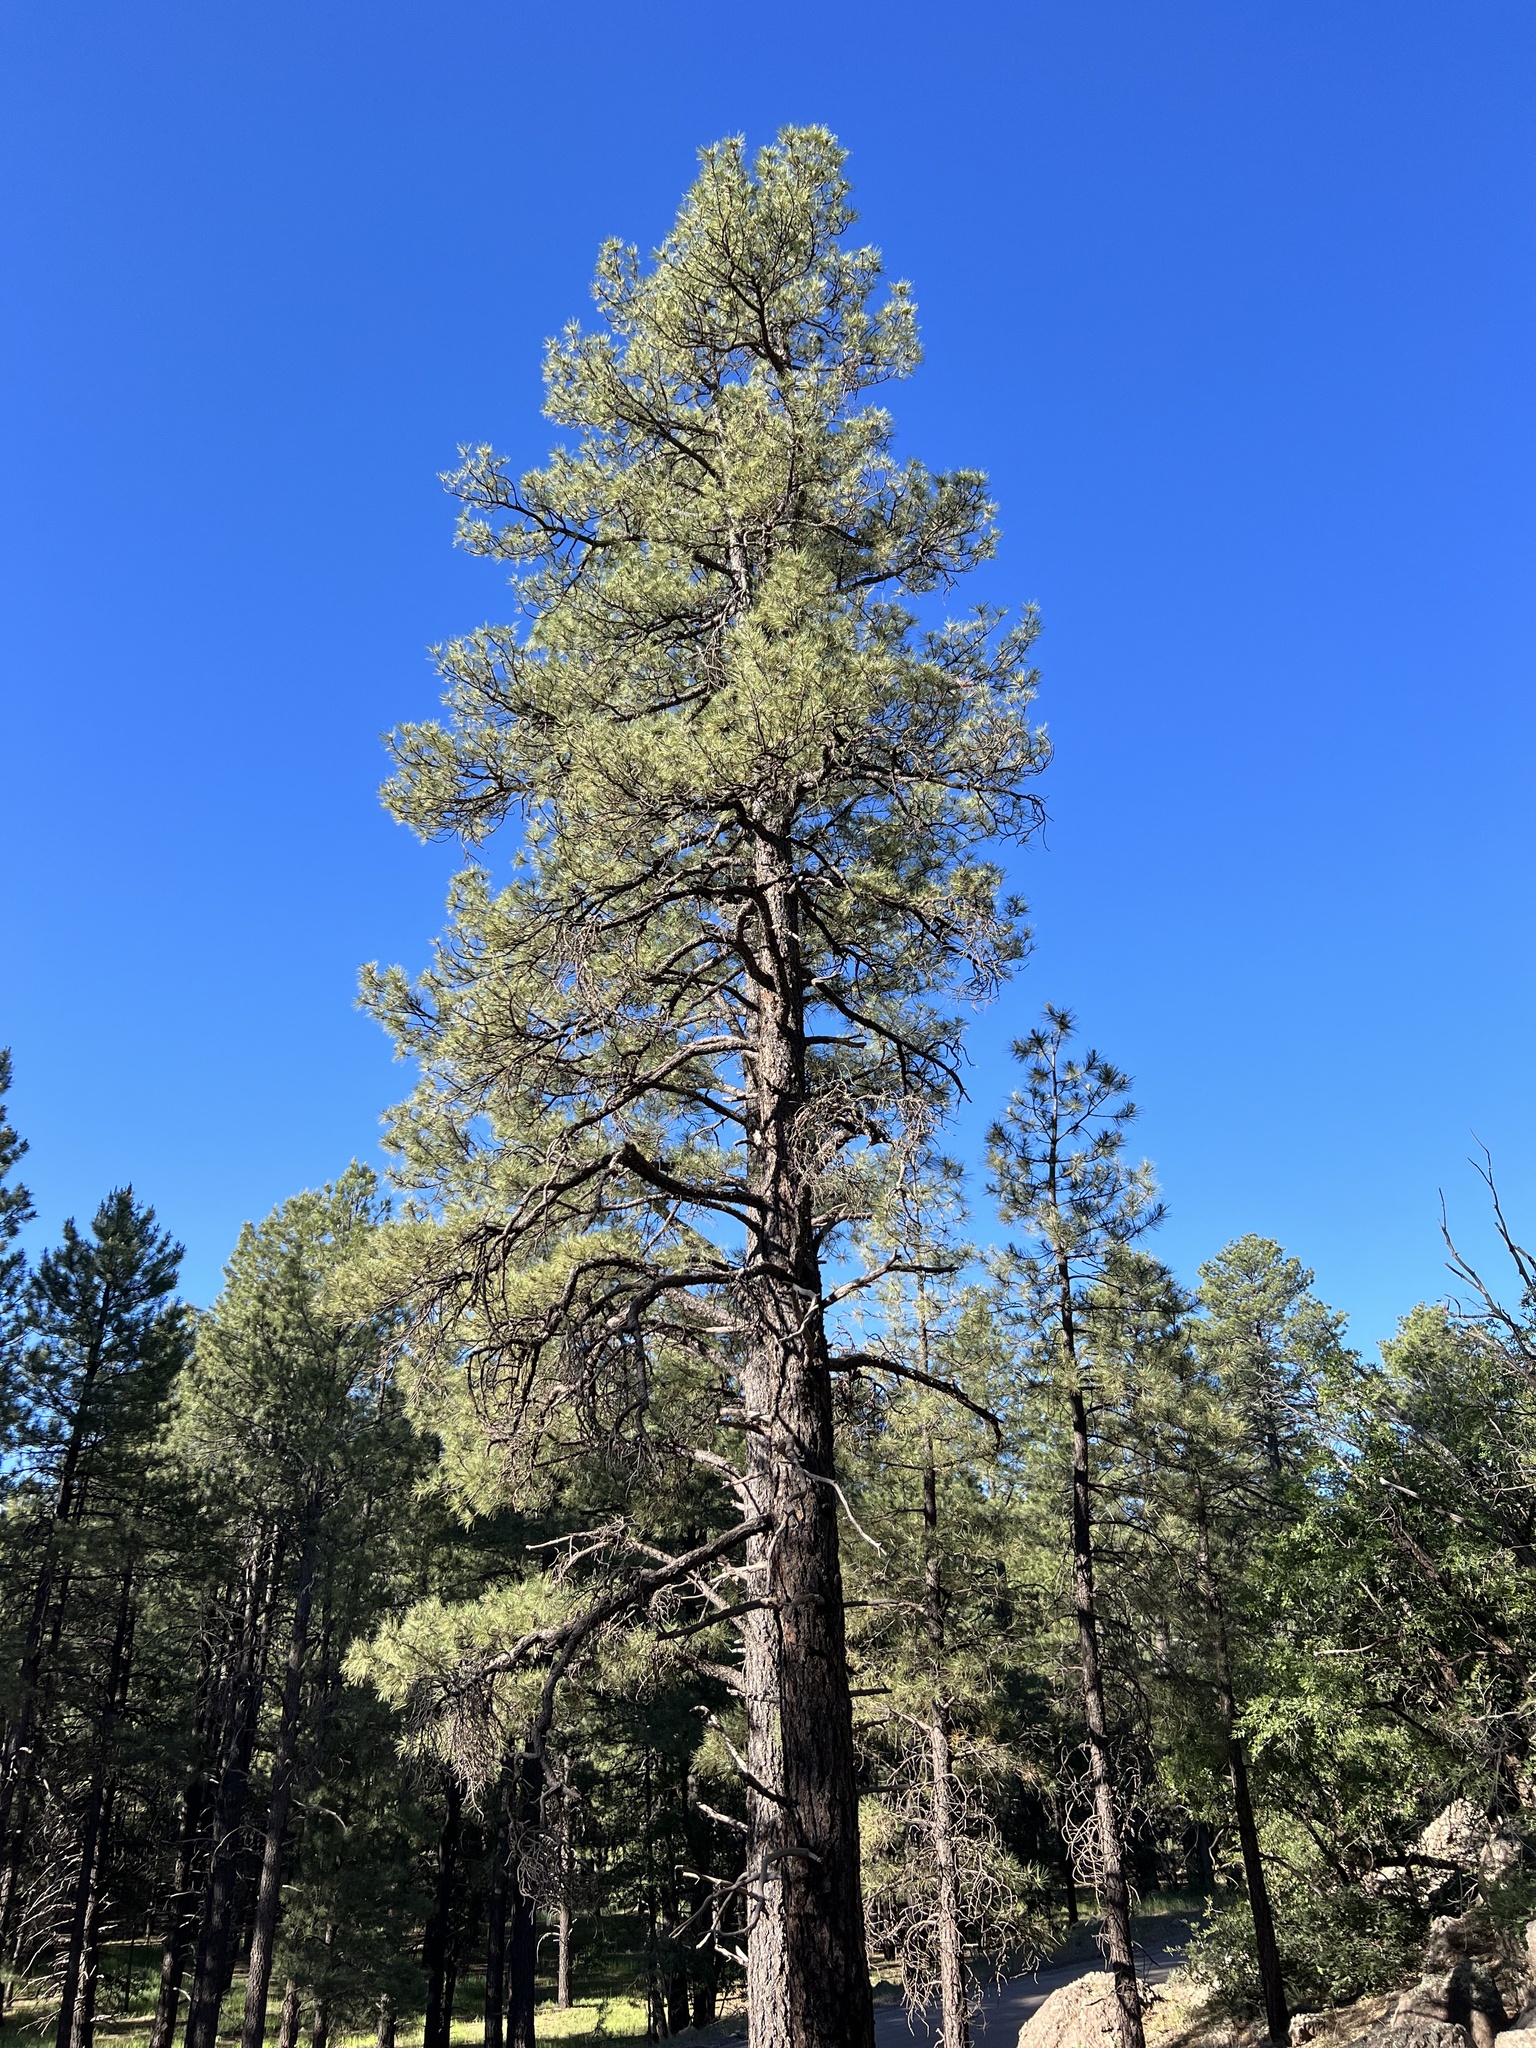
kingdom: Plantae
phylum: Tracheophyta
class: Pinopsida
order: Pinales
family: Pinaceae
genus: Pinus
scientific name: Pinus ponderosa
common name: Western yellow-pine
